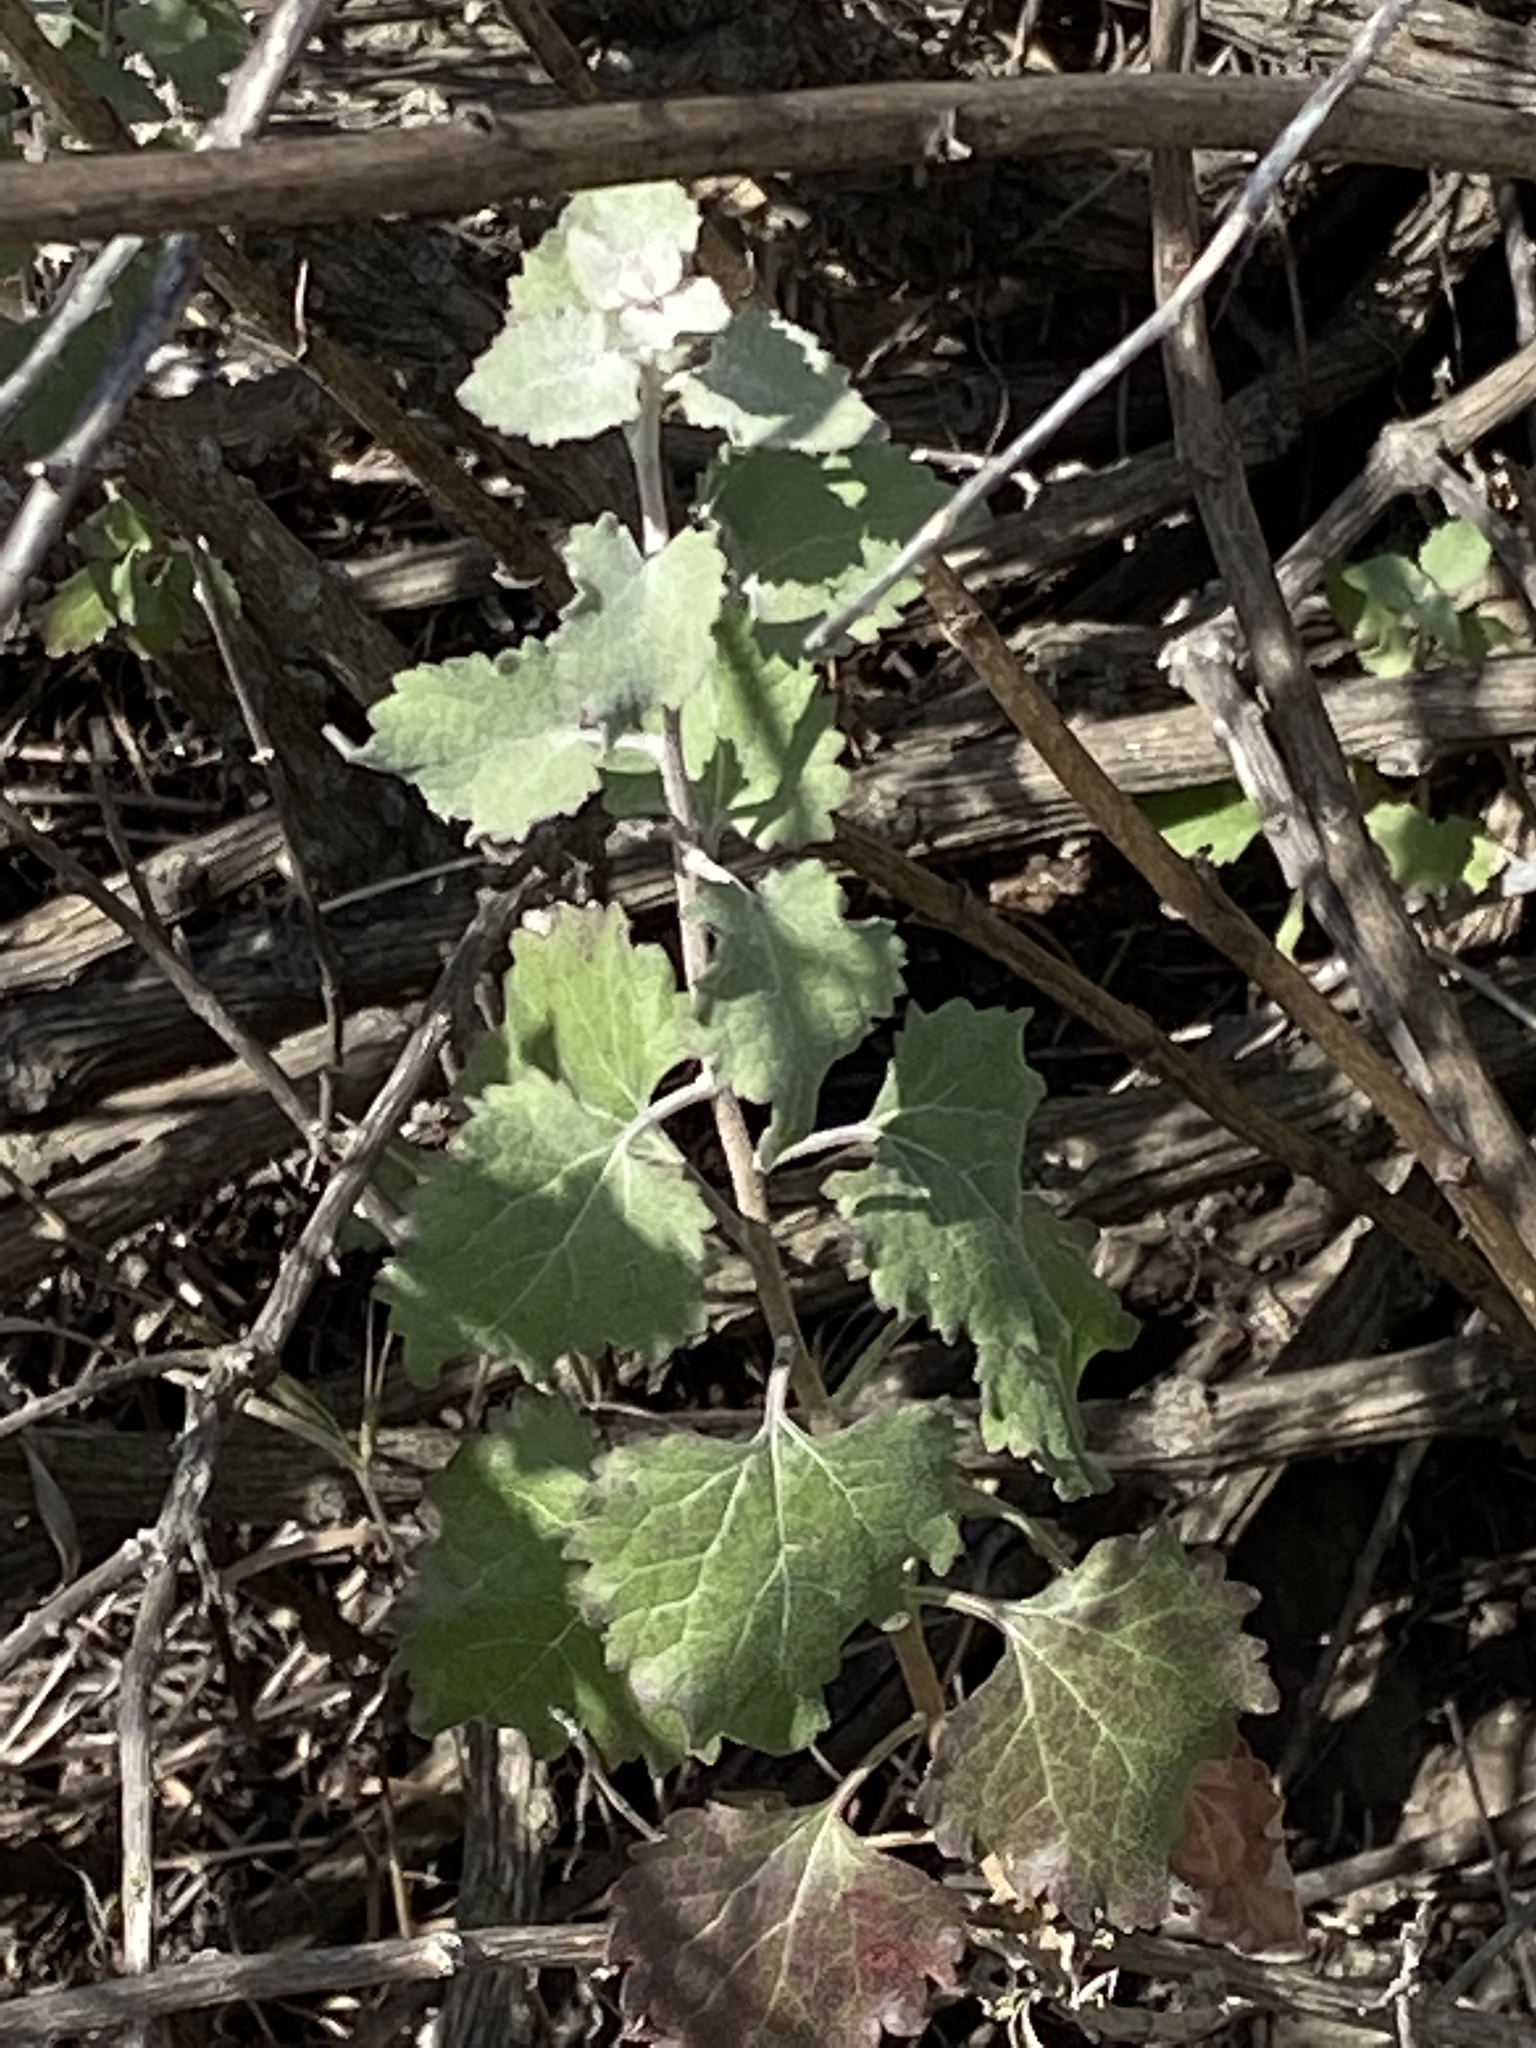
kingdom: Plantae
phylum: Tracheophyta
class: Magnoliopsida
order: Asterales
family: Asteraceae
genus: Brickellia
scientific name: Brickellia californica
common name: California brickellbush
